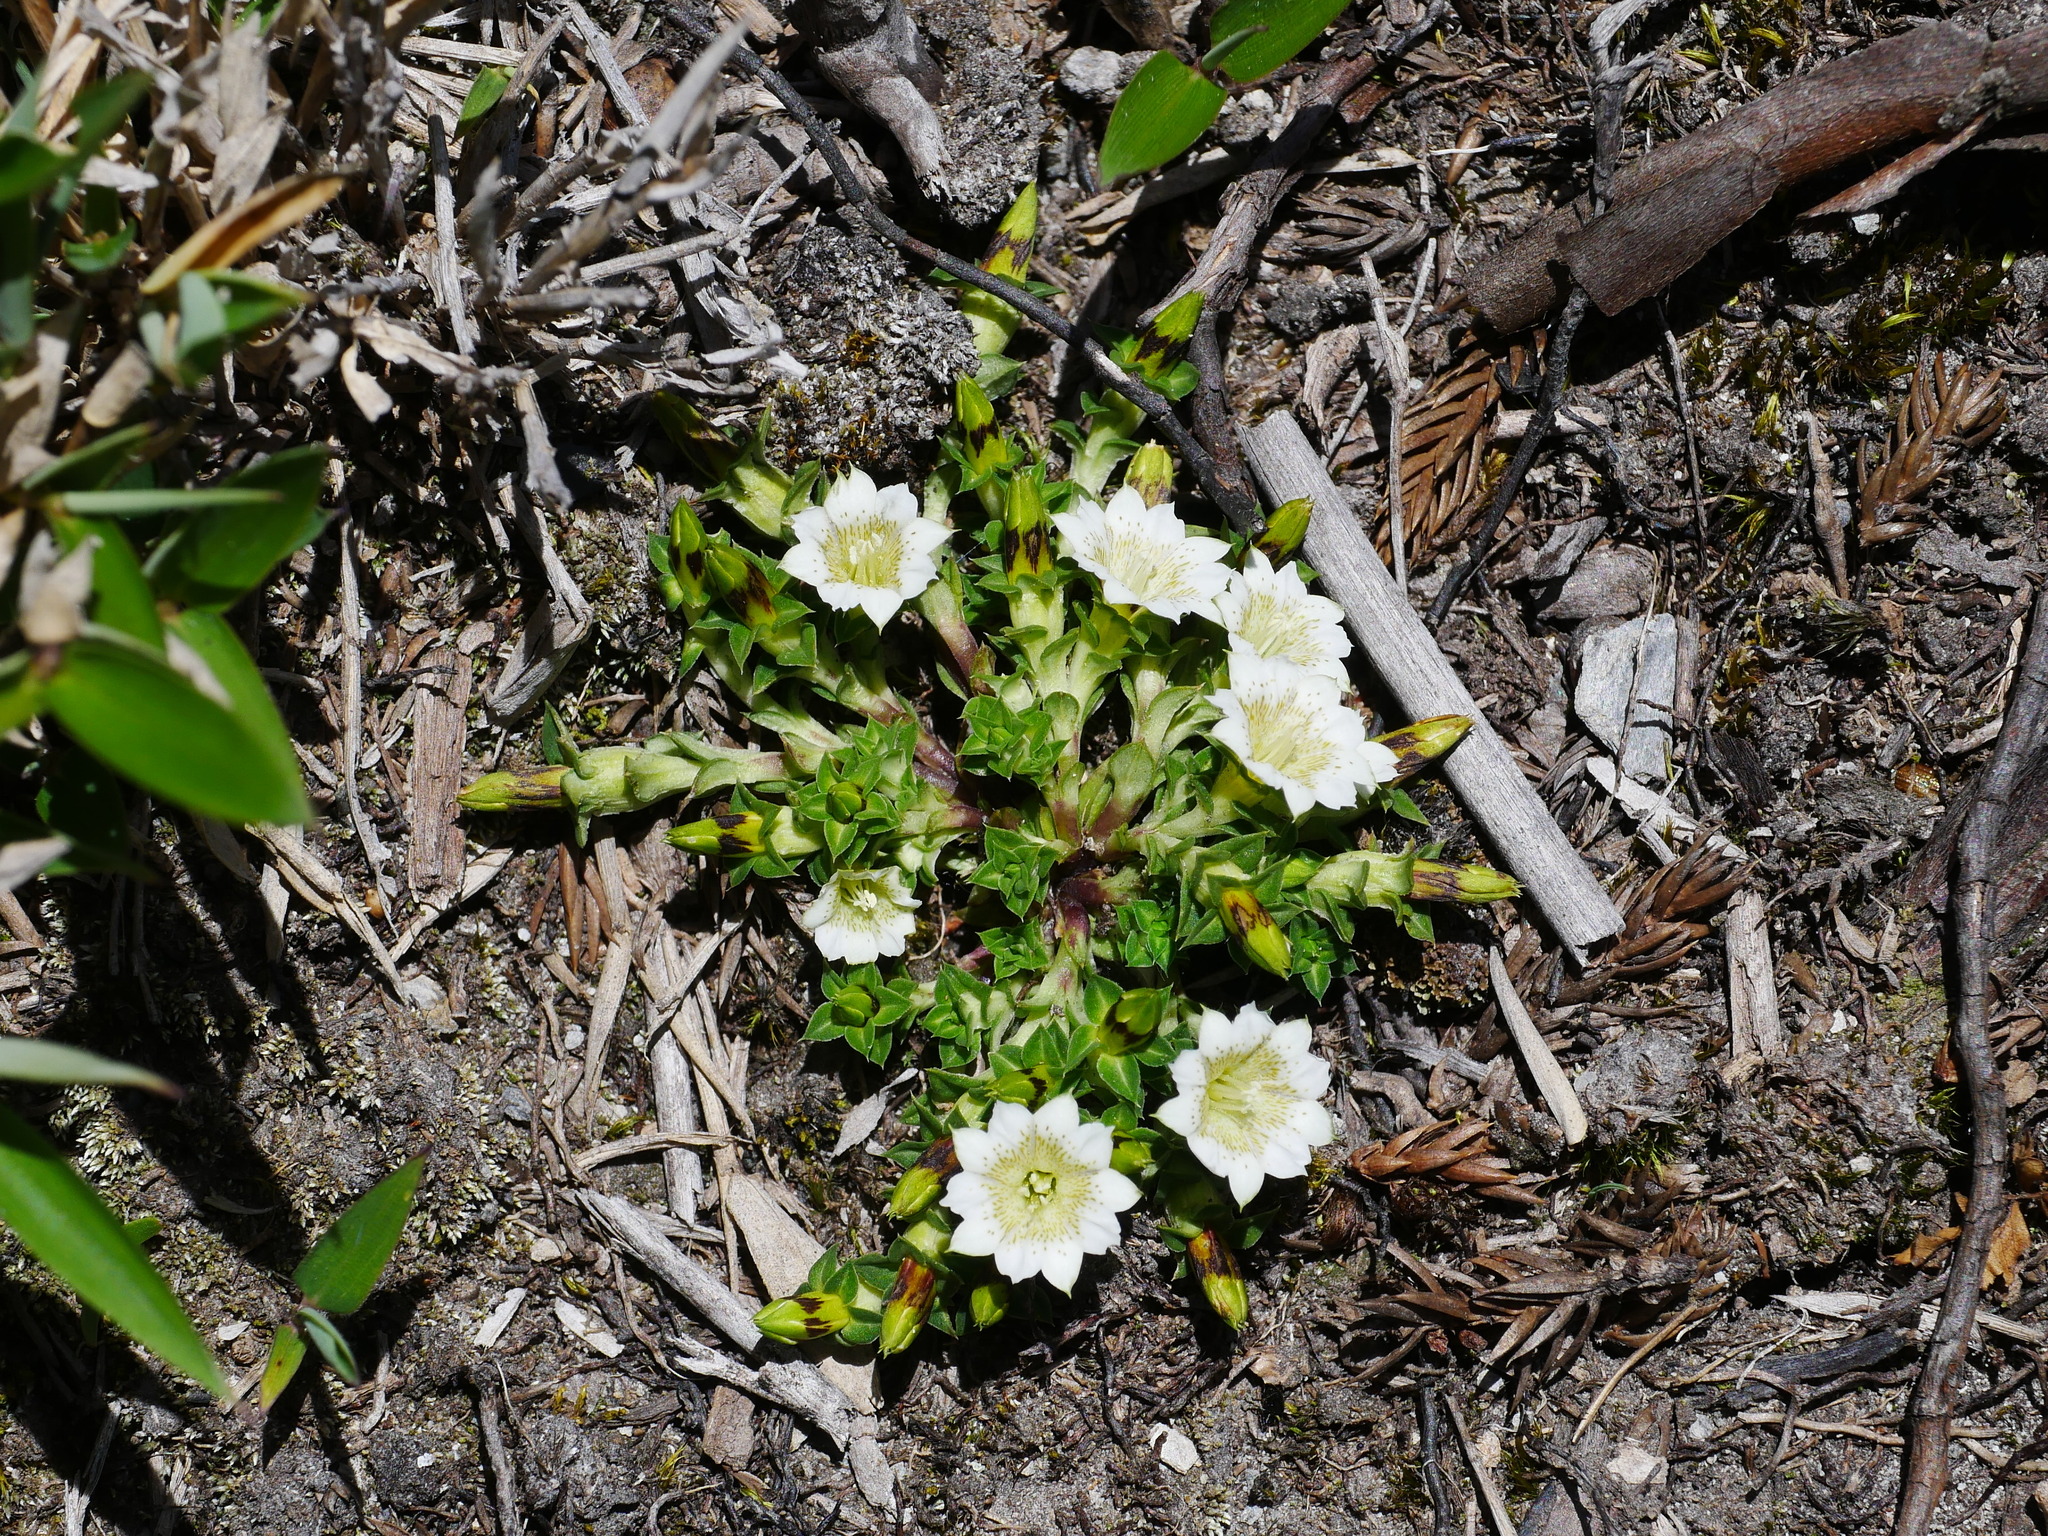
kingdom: Plantae
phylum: Tracheophyta
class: Magnoliopsida
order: Gentianales
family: Gentianaceae
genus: Gentiana
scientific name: Gentiana scabrida
